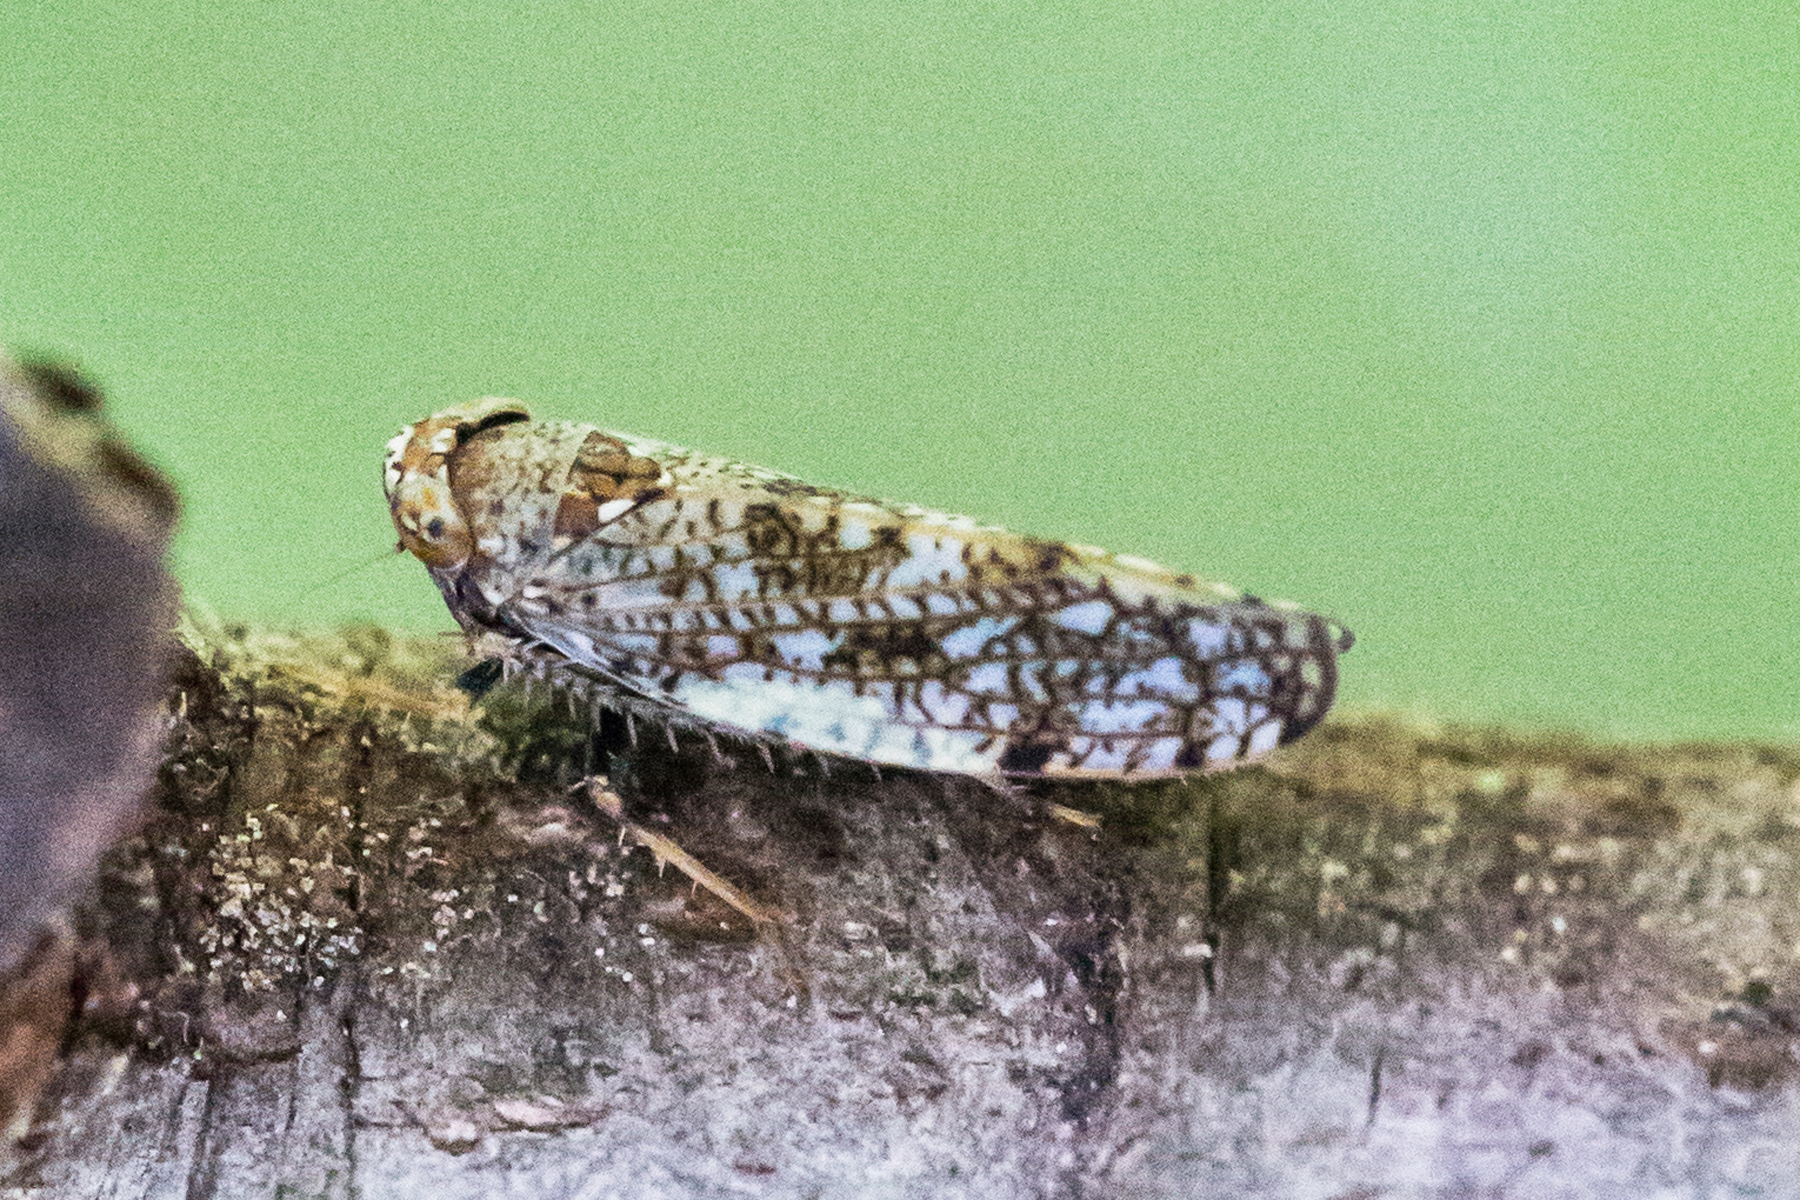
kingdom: Animalia
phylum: Arthropoda
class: Insecta
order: Hemiptera
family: Cicadellidae
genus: Orientus
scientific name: Orientus ishidae
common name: Japanese leafhopper
